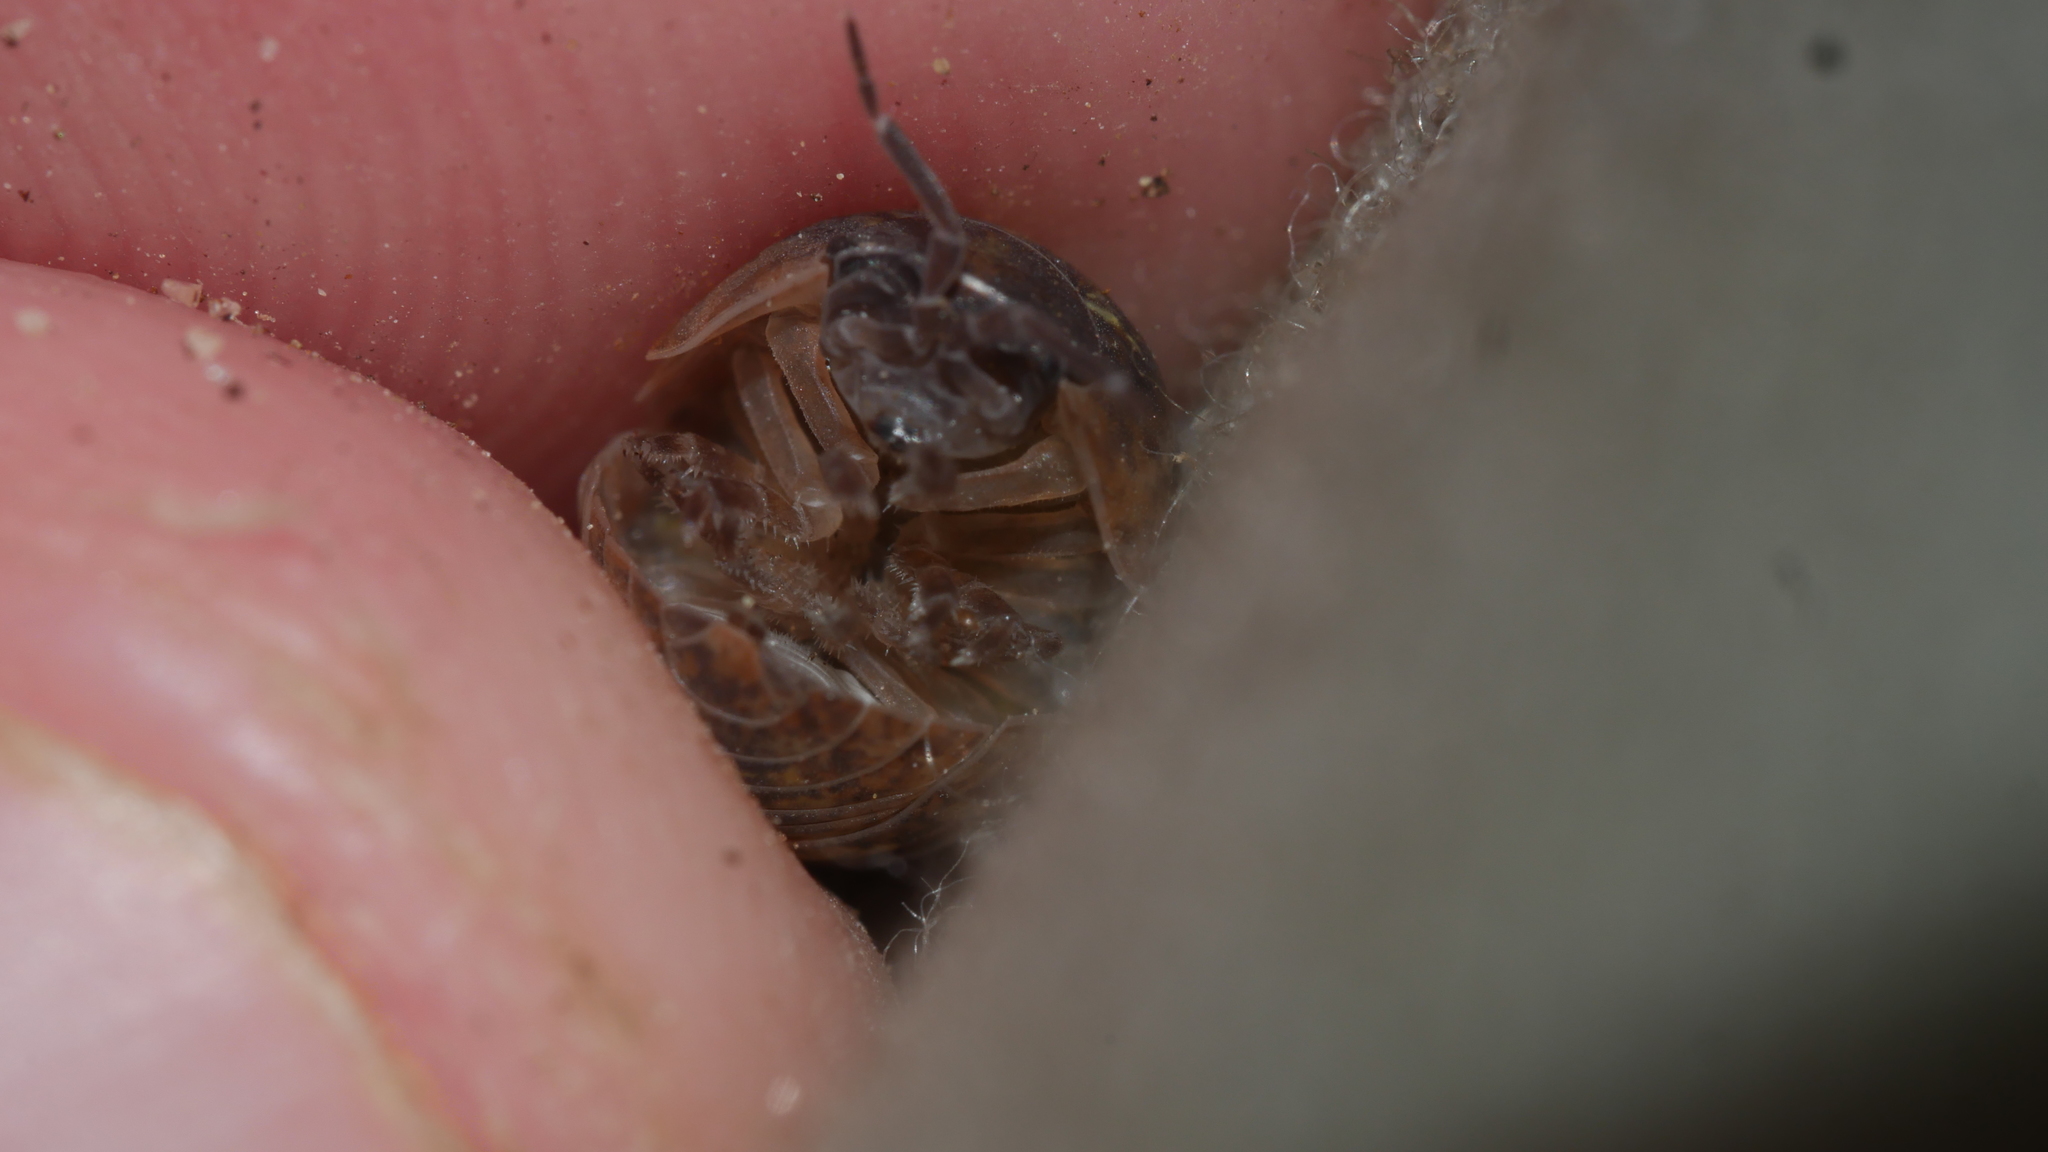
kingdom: Animalia
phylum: Arthropoda
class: Malacostraca
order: Isopoda
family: Armadillidiidae
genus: Armadillidium
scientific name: Armadillidium vulgare
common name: Common pill woodlouse
